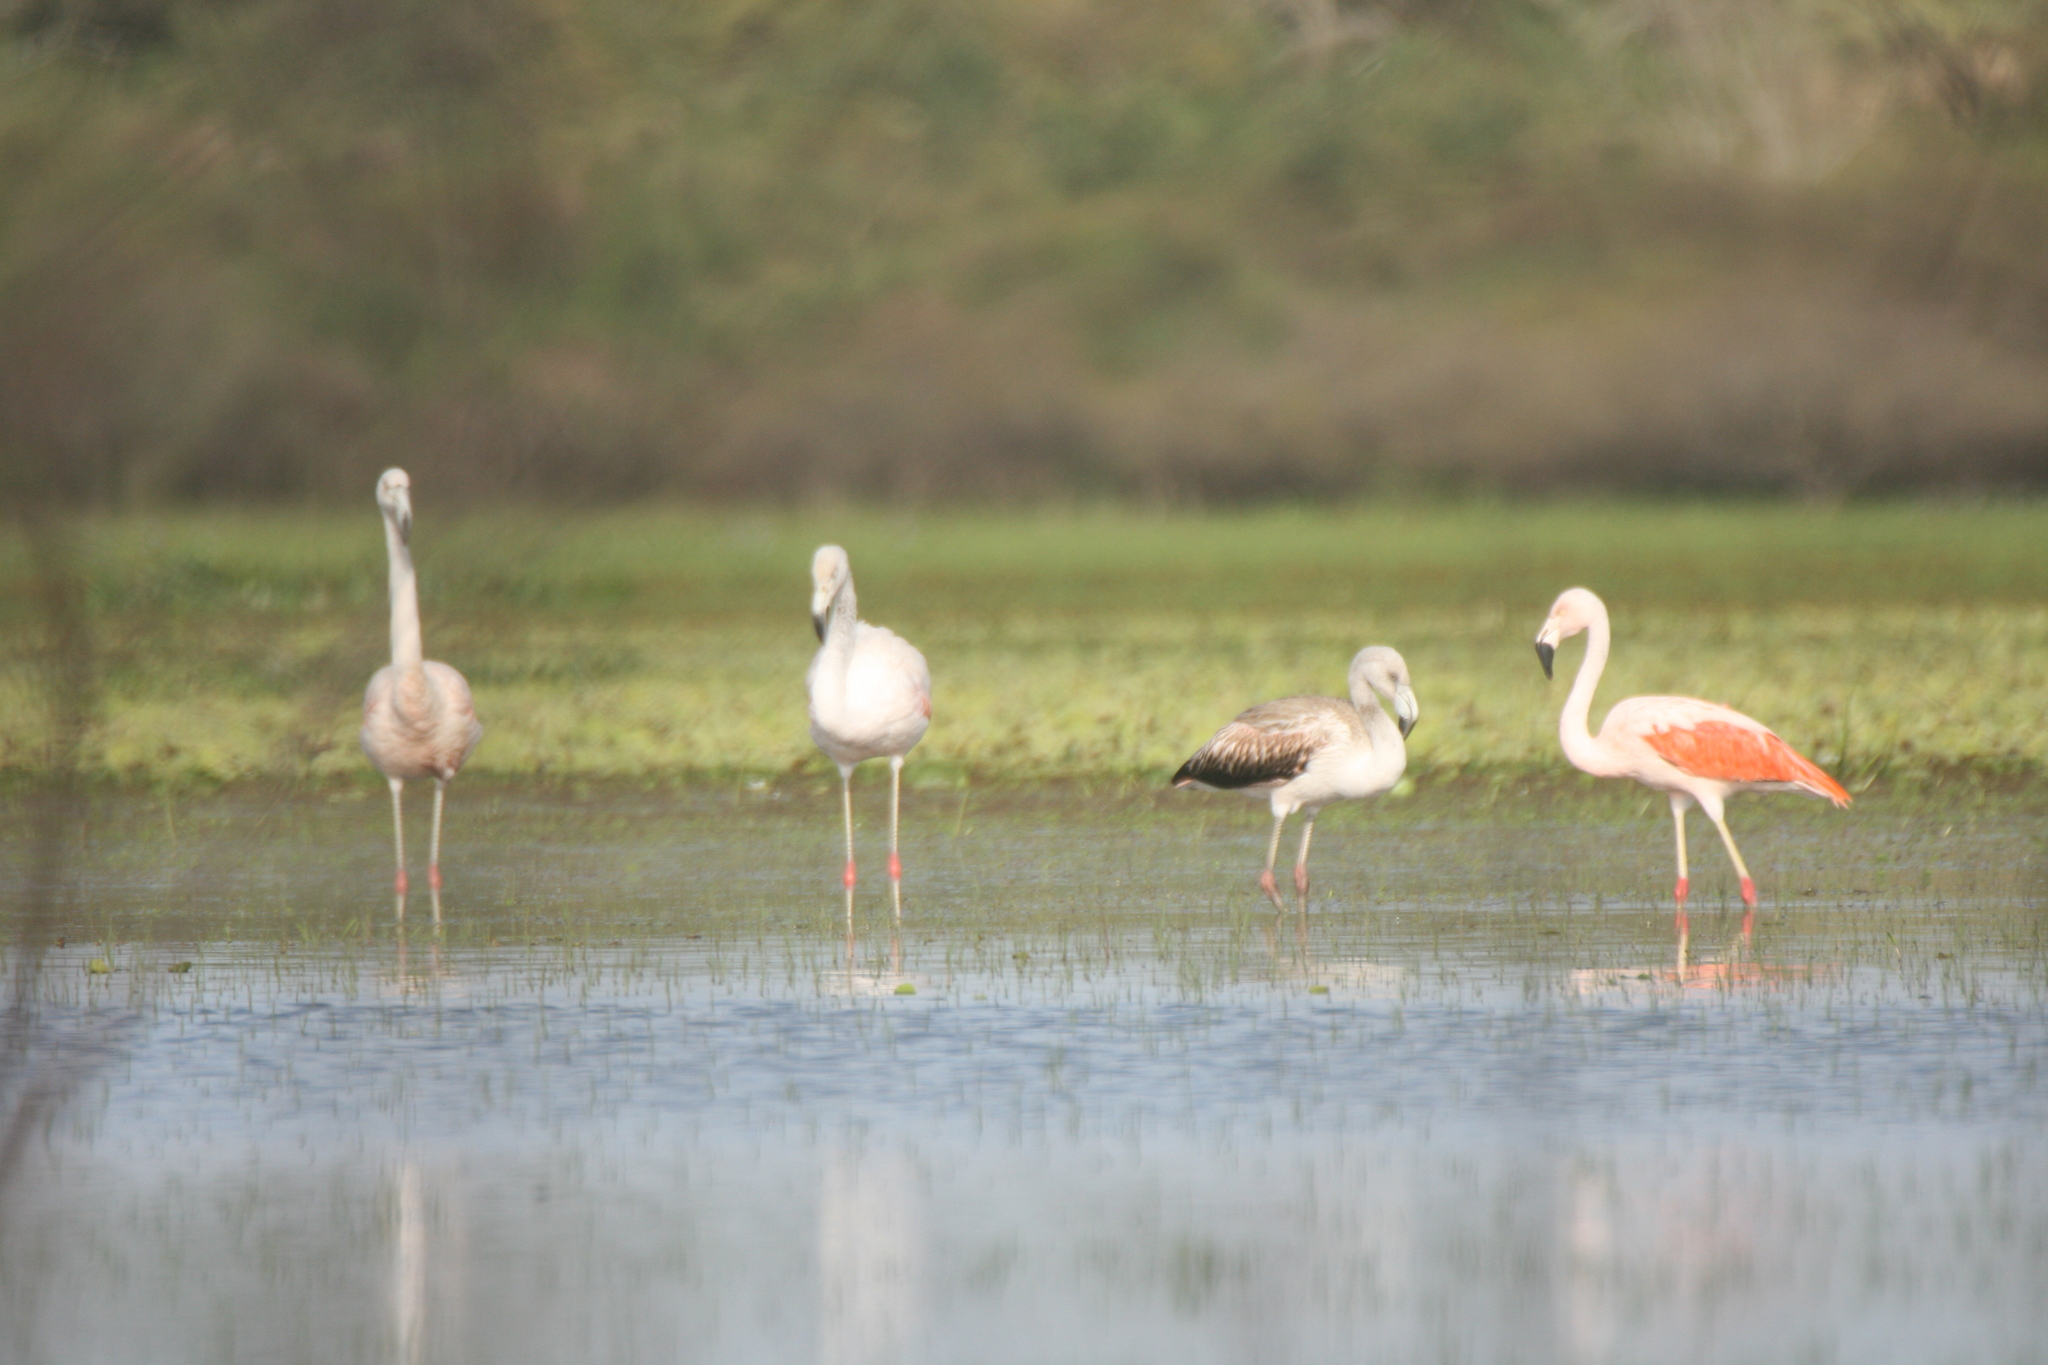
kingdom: Animalia
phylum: Chordata
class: Aves
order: Phoenicopteriformes
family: Phoenicopteridae
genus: Phoenicopterus
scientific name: Phoenicopterus chilensis
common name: Chilean flamingo
